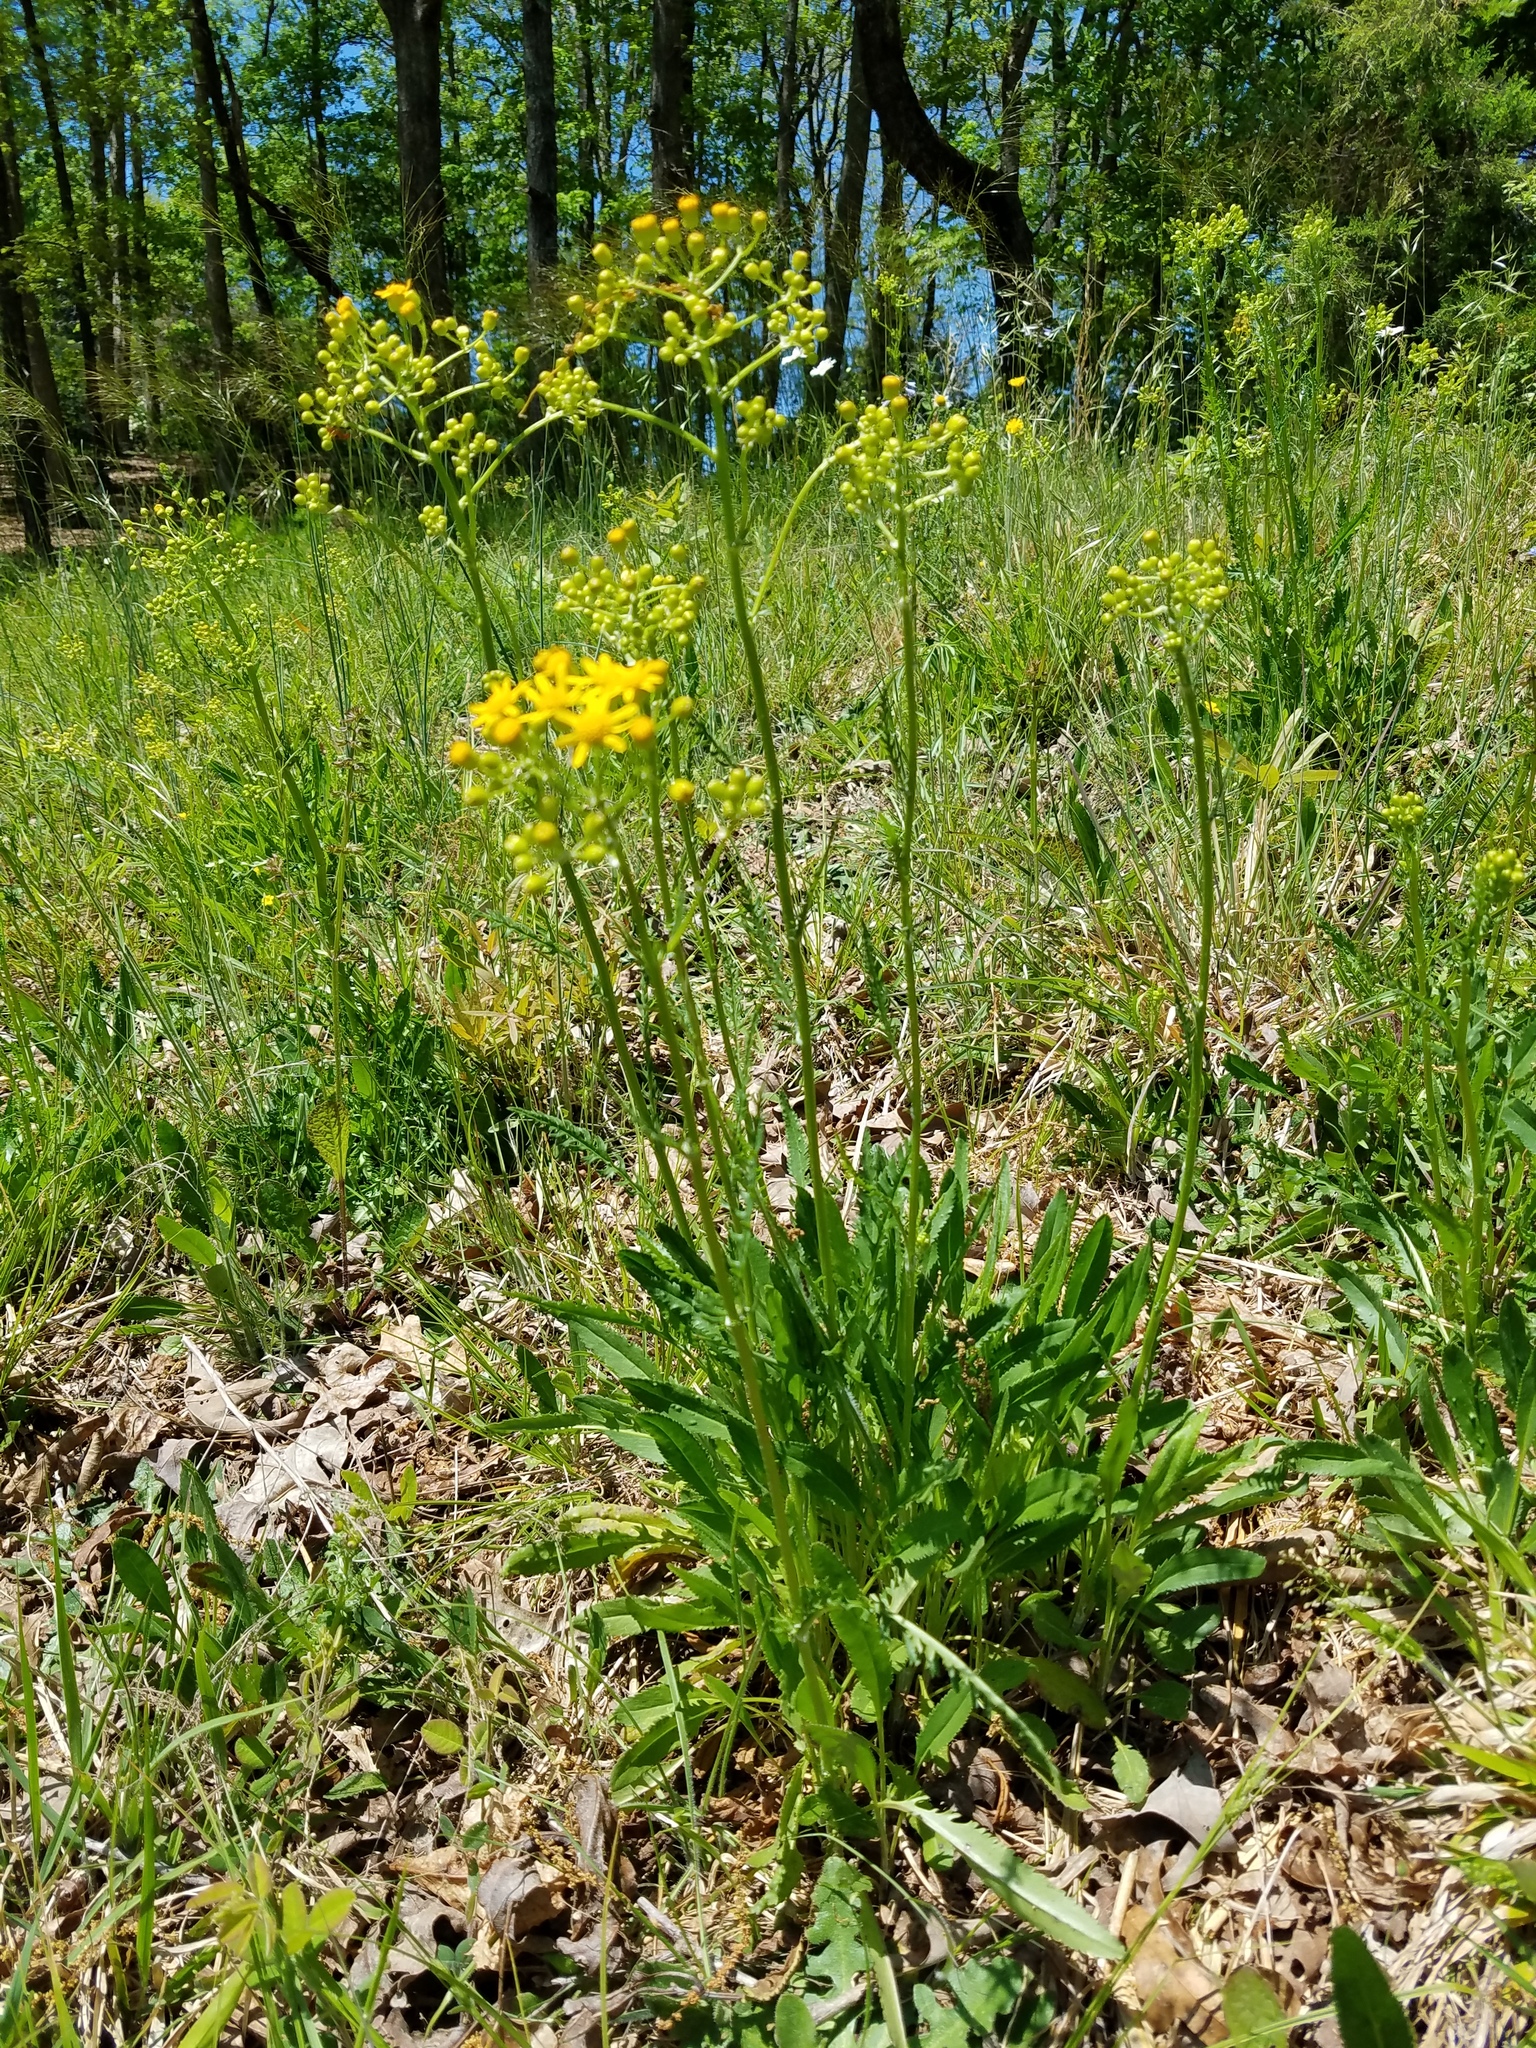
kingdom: Plantae
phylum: Tracheophyta
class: Magnoliopsida
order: Asterales
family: Asteraceae
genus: Packera
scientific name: Packera anonyma
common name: Small ragwort
